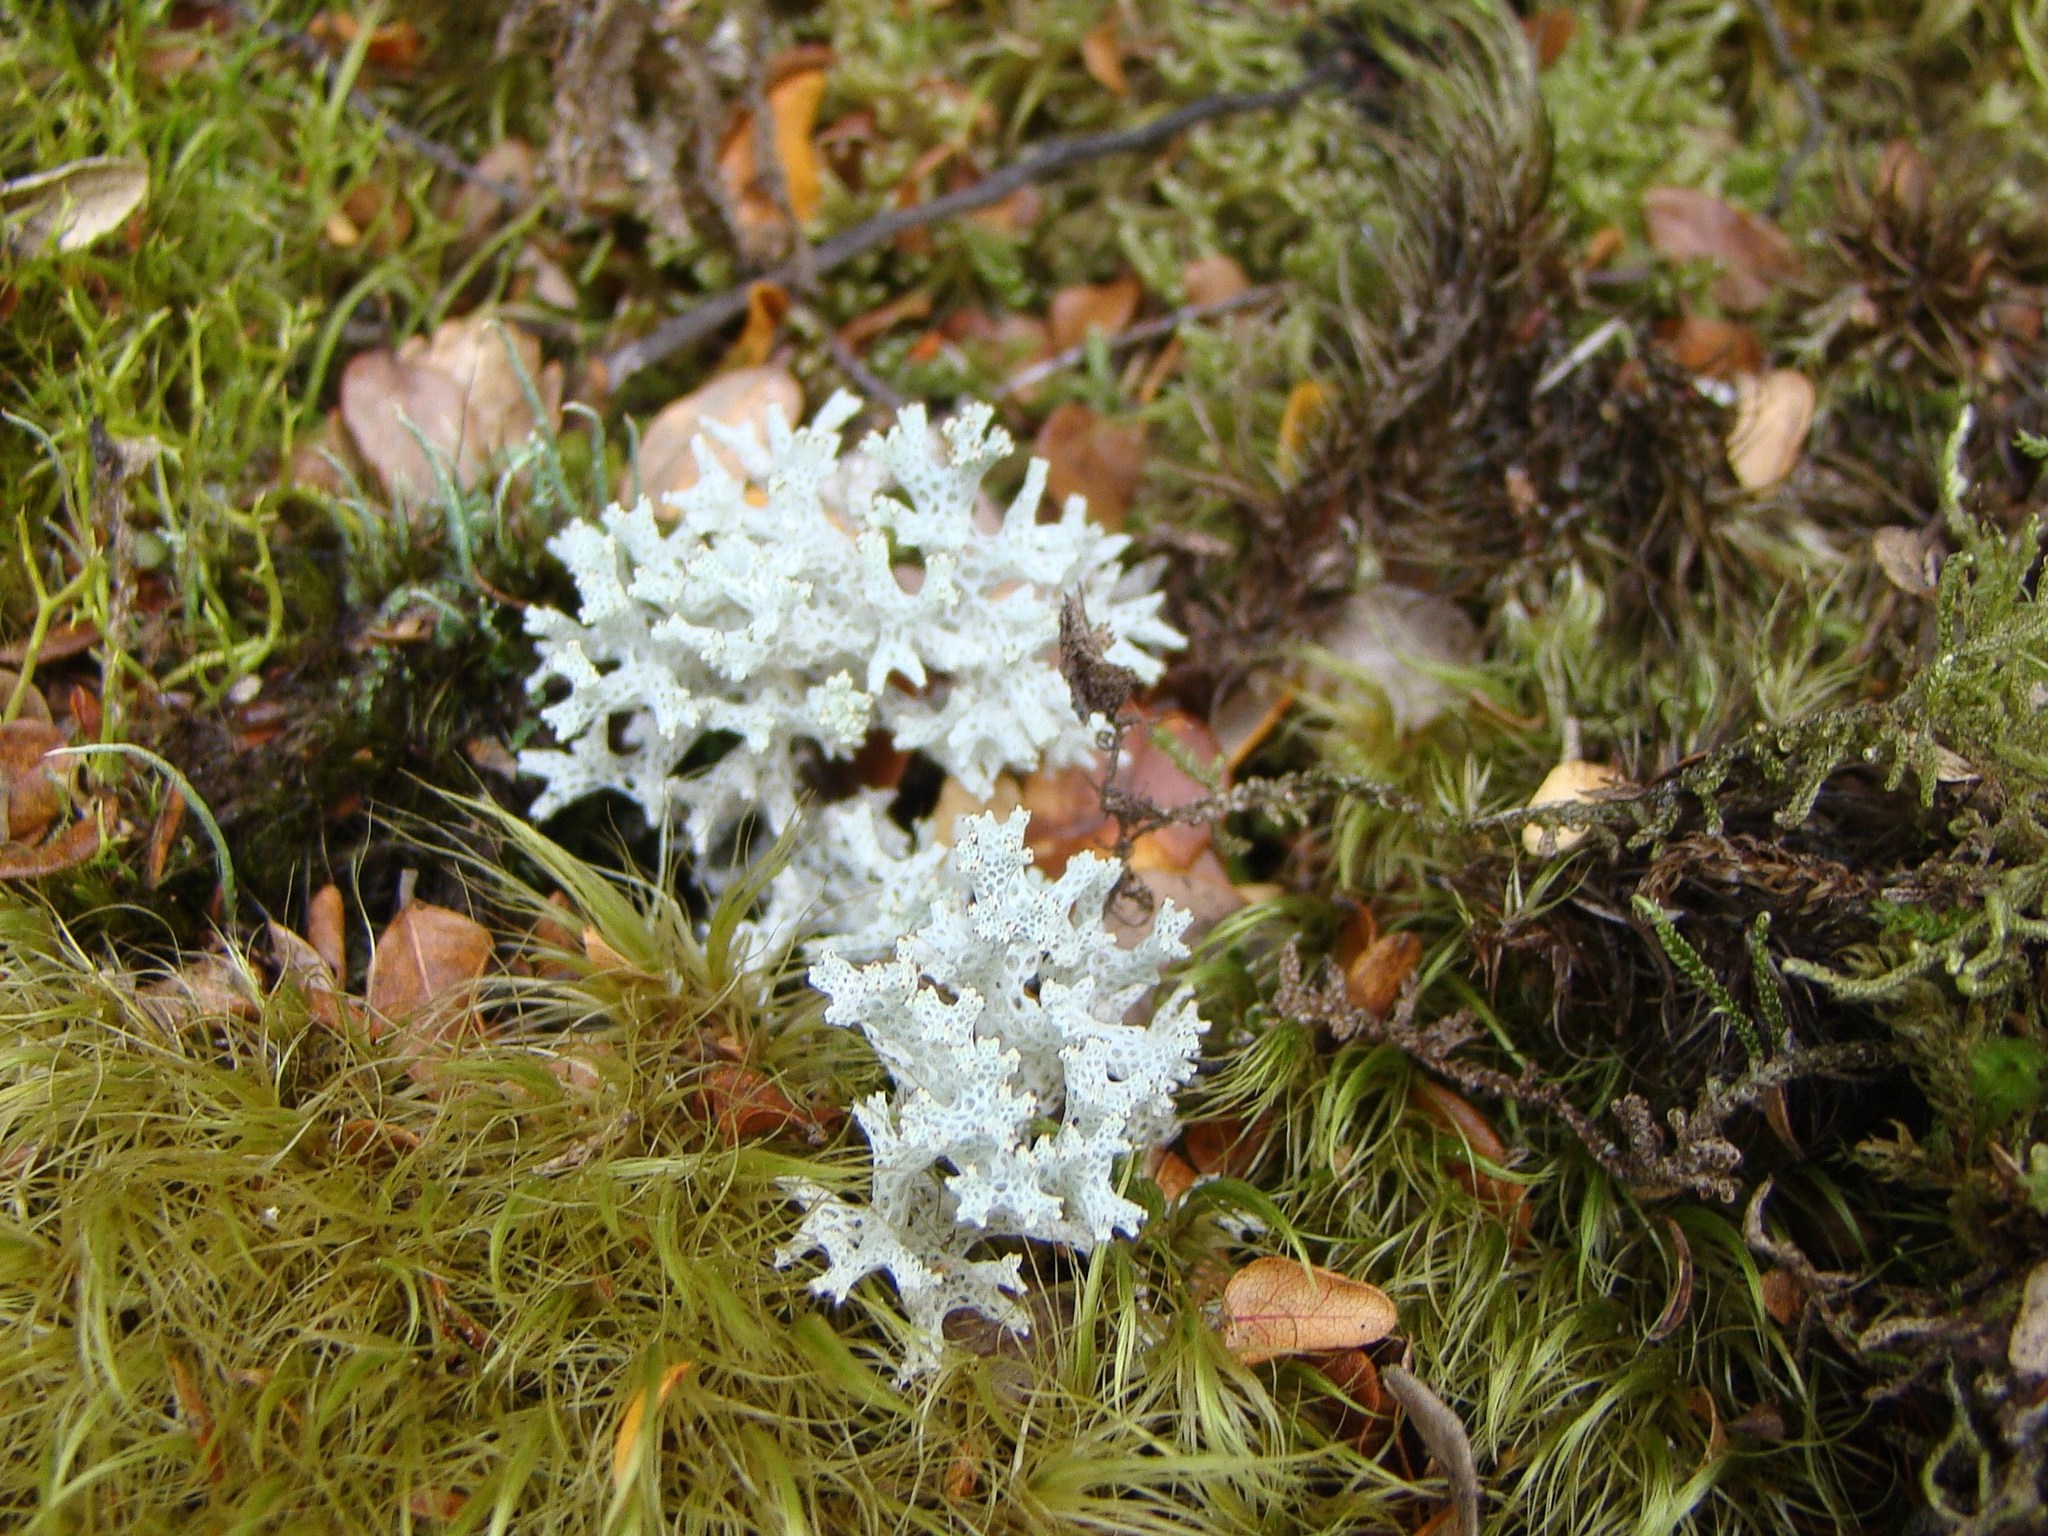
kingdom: Fungi
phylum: Ascomycota
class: Lecanoromycetes
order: Lecanorales
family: Cladoniaceae
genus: Pulchrocladia
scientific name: Pulchrocladia retipora
